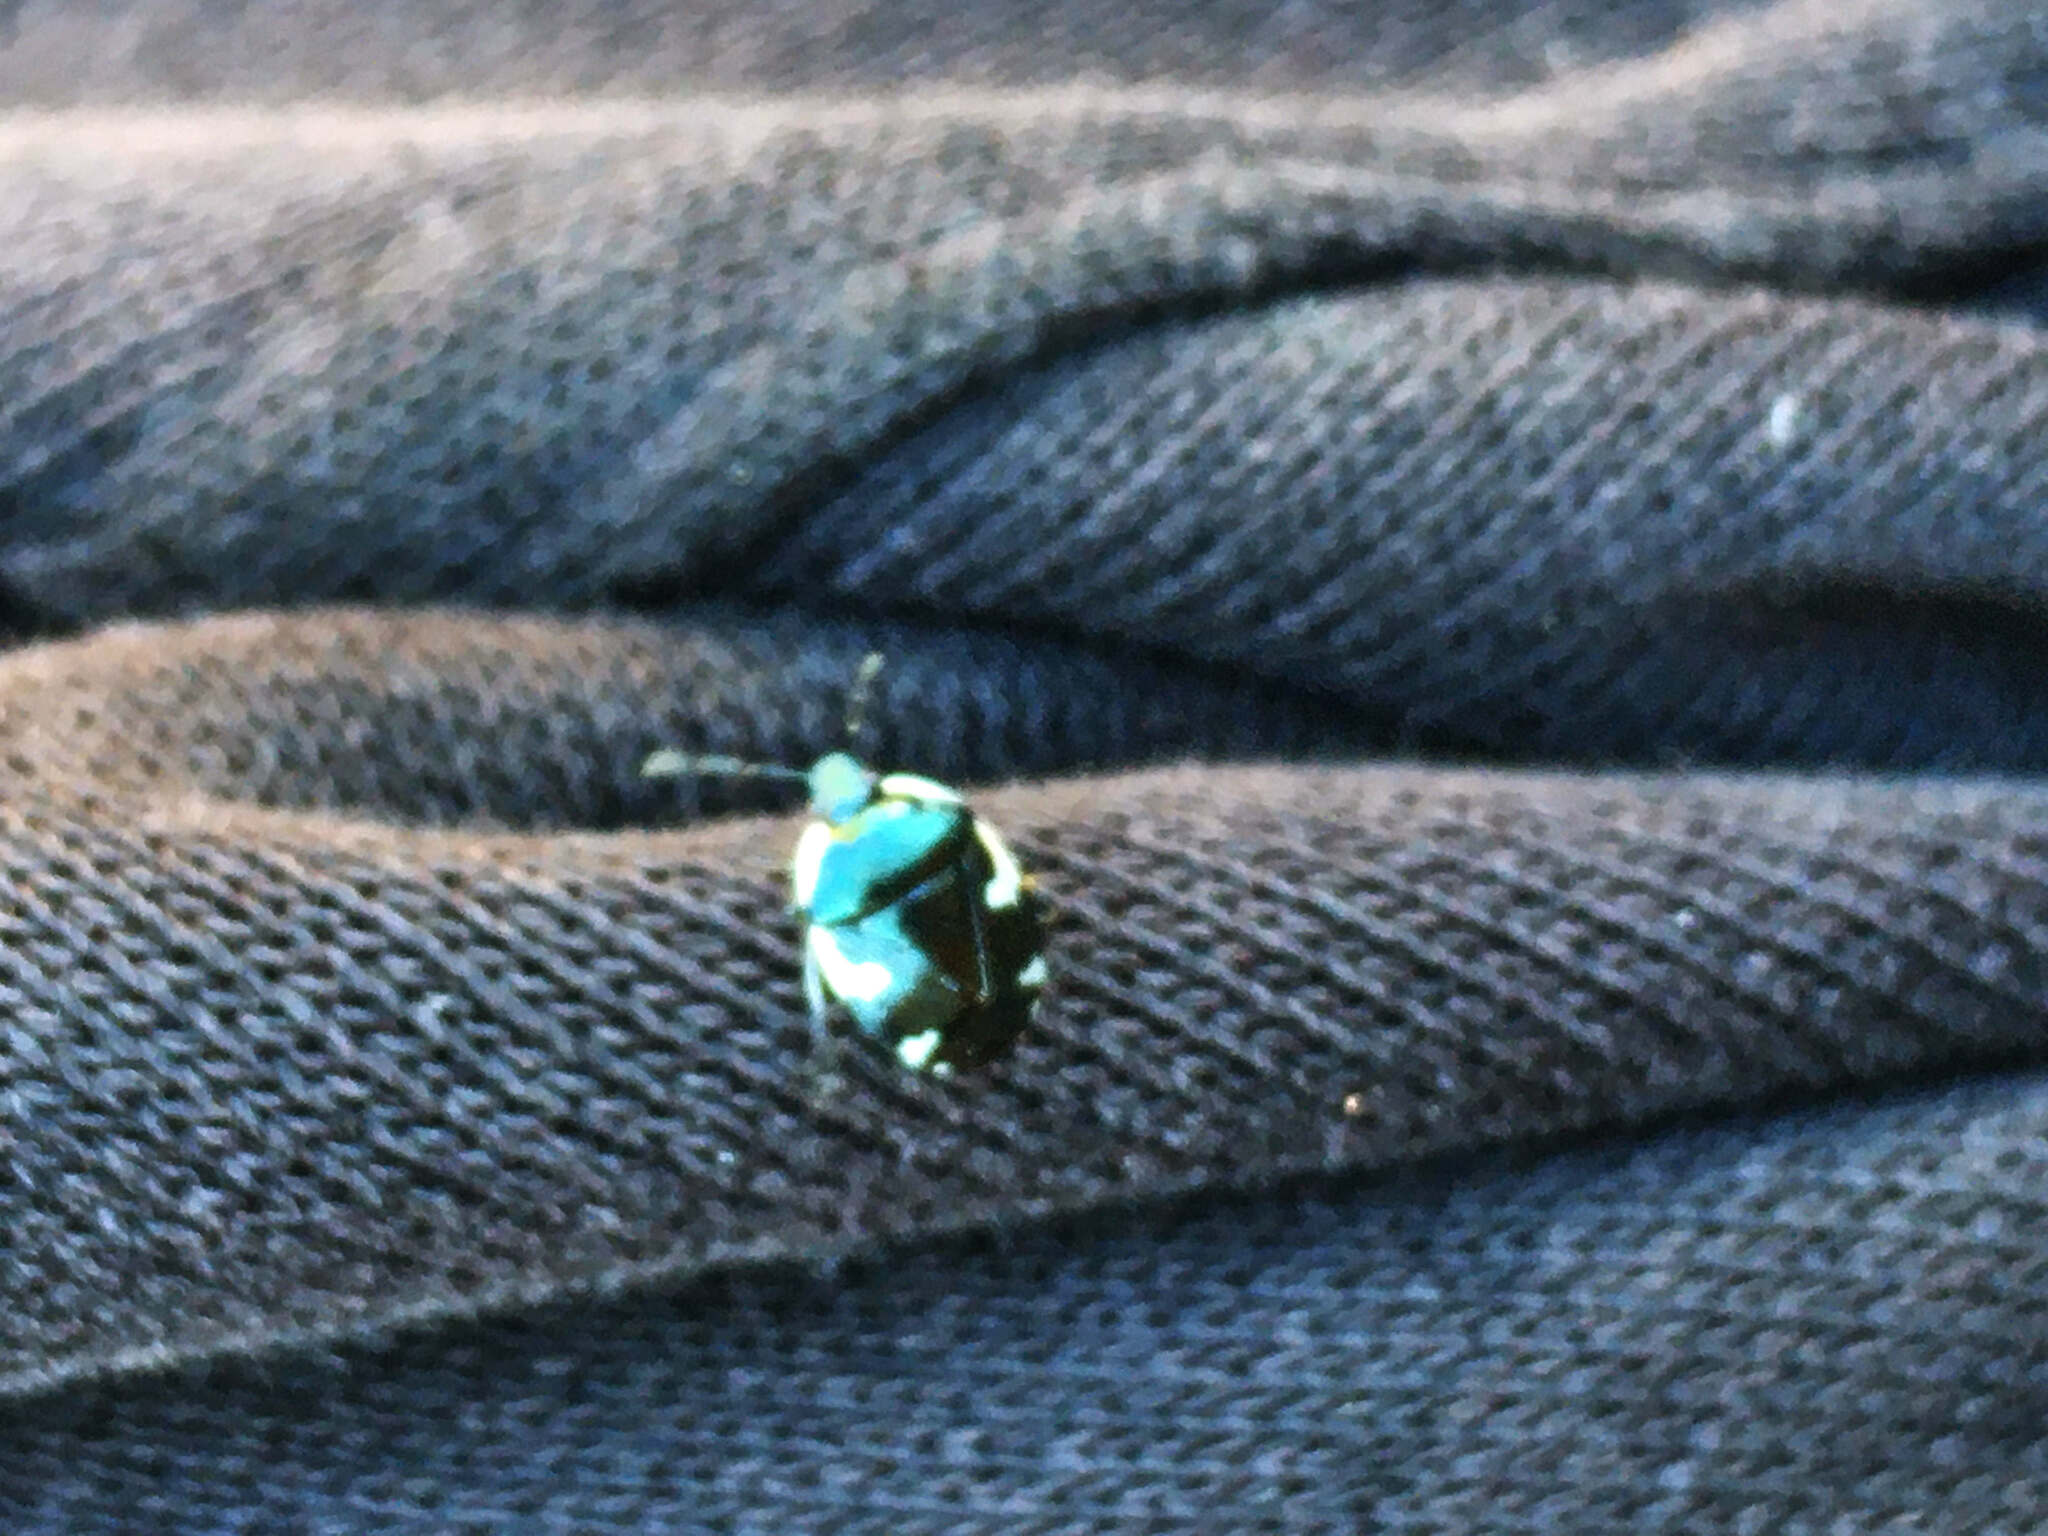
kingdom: Animalia
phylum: Arthropoda
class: Insecta
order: Hemiptera
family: Cydnidae
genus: Tritomegas
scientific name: Tritomegas sexmaculatus
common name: Rambur's pied shieldbug
